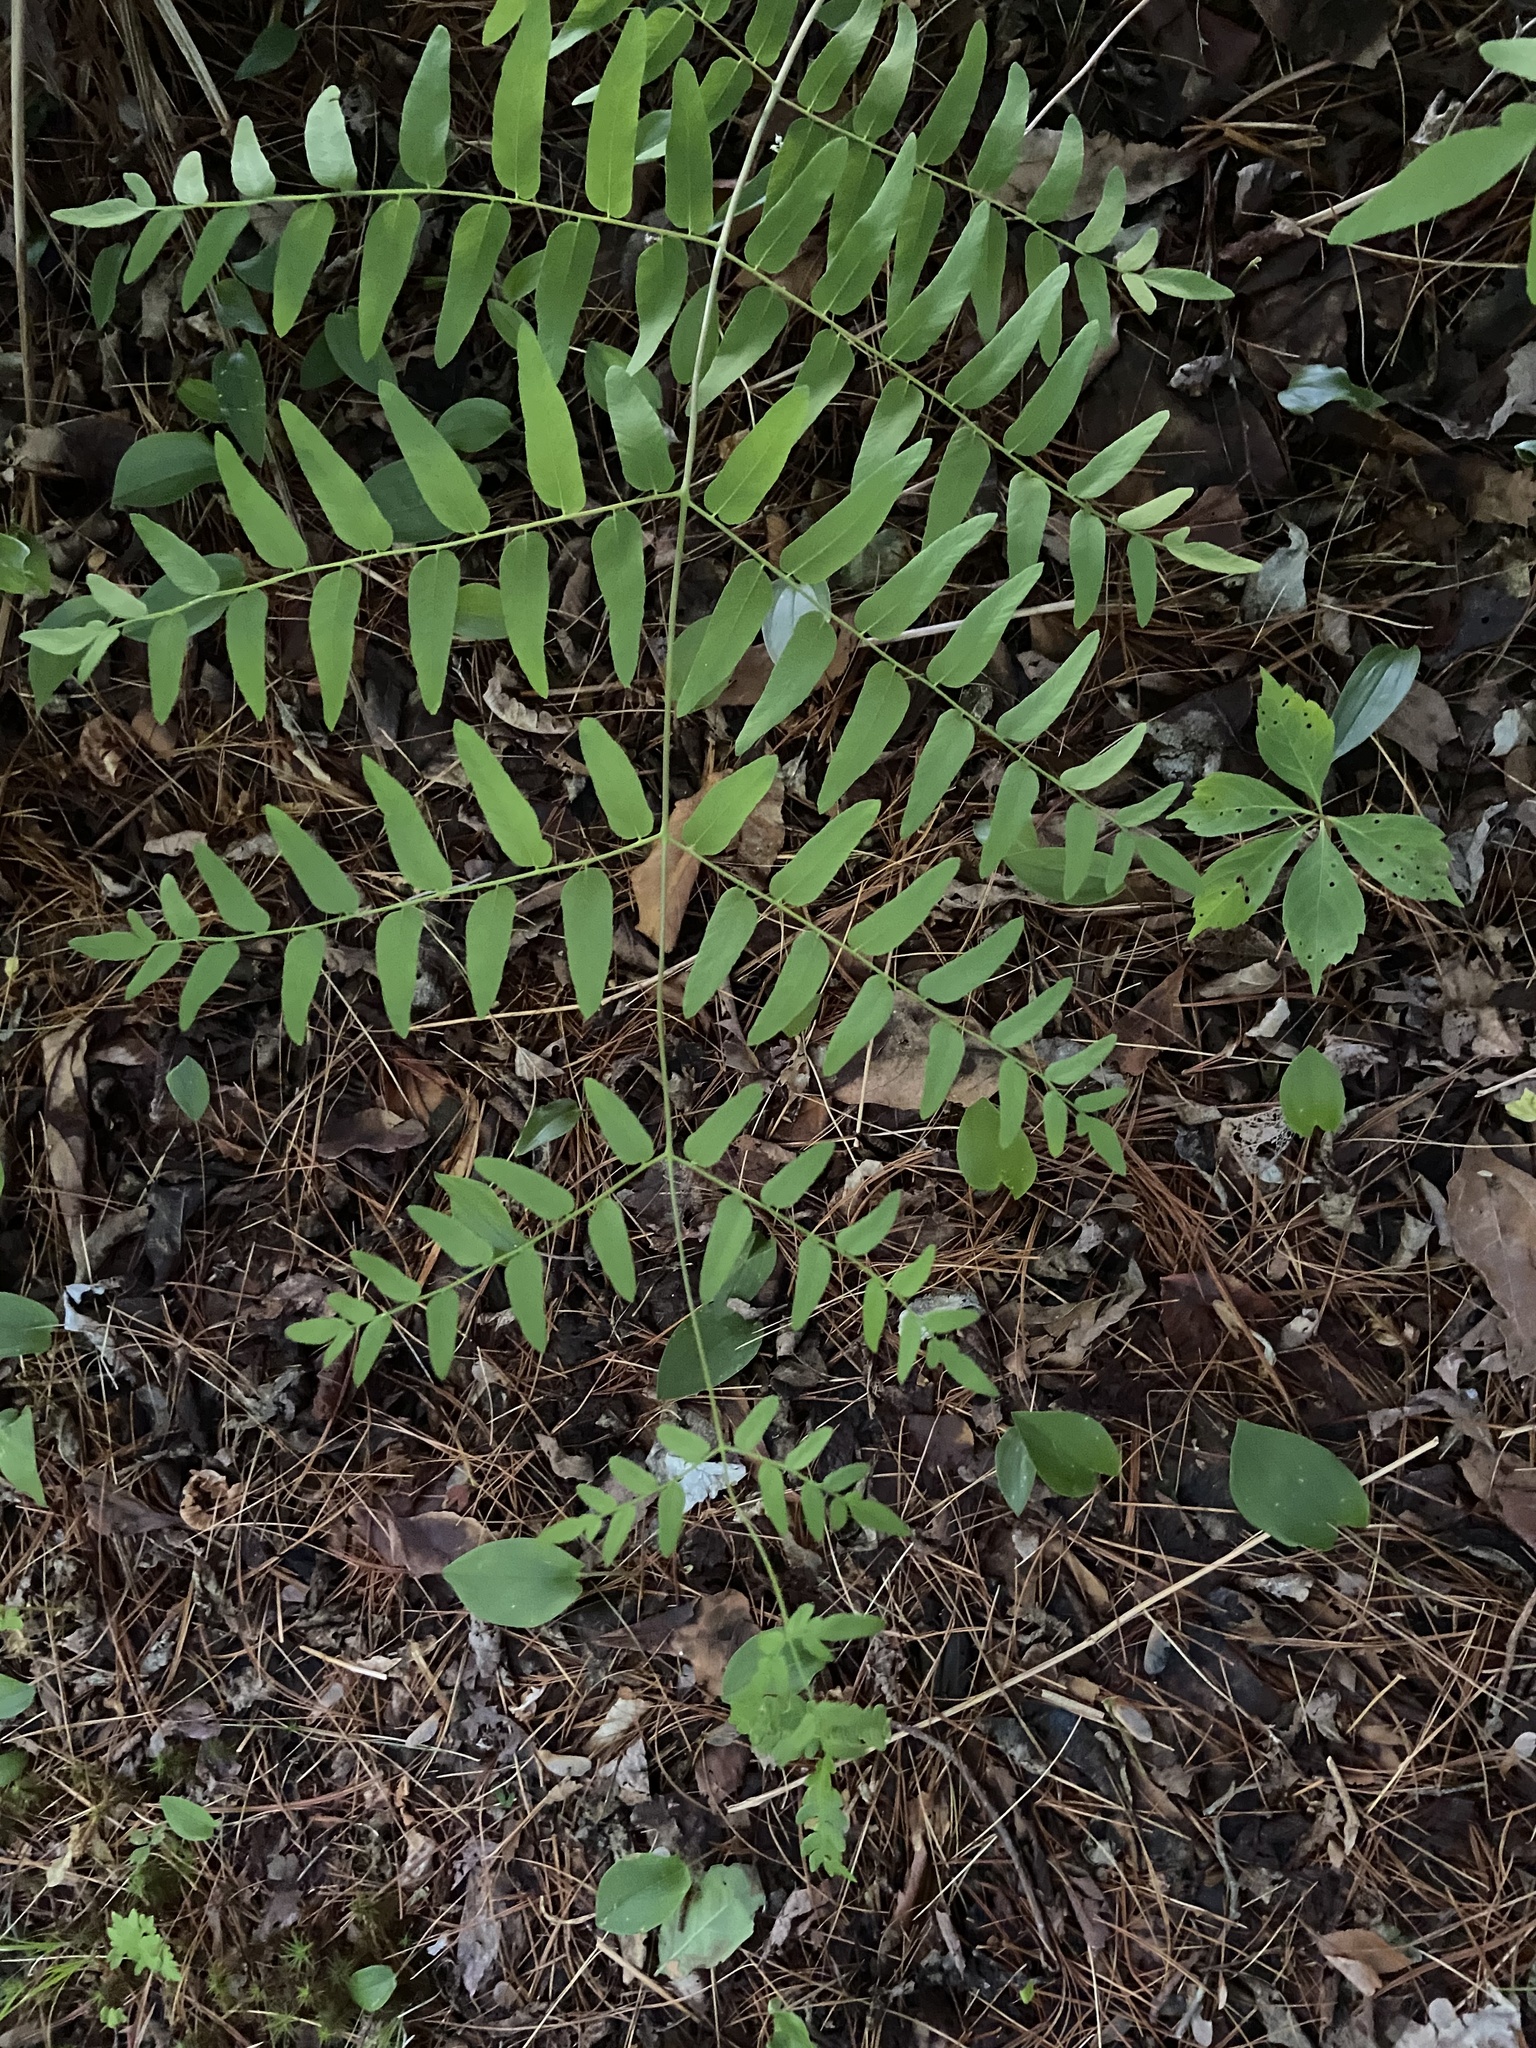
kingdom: Plantae
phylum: Tracheophyta
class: Polypodiopsida
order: Osmundales
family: Osmundaceae
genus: Osmunda
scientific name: Osmunda spectabilis
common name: American royal fern
